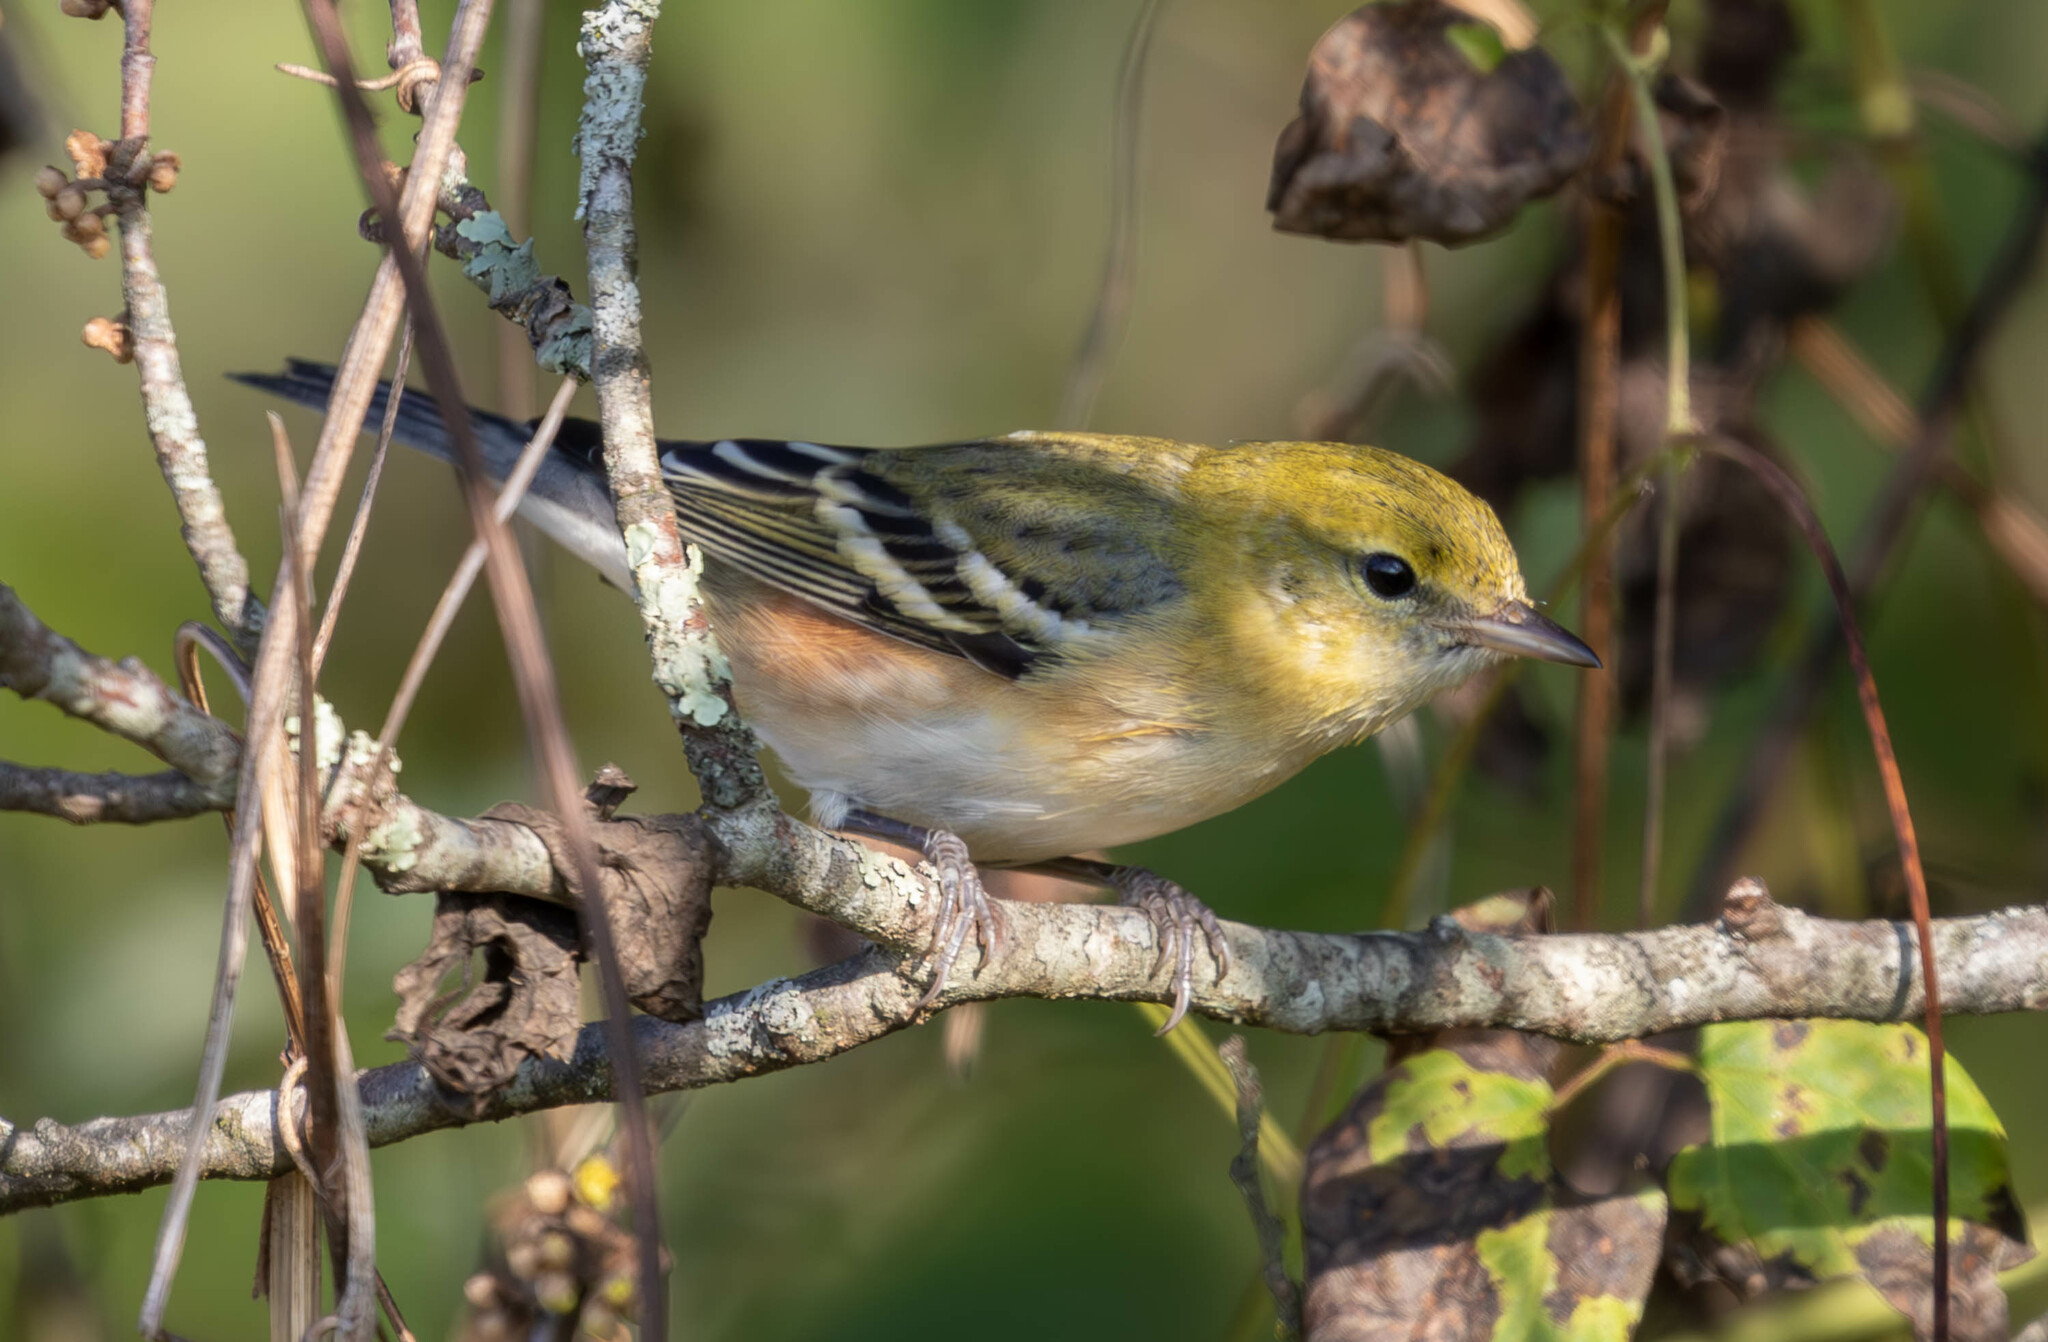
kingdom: Animalia
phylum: Chordata
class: Aves
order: Passeriformes
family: Parulidae
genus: Setophaga
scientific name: Setophaga castanea
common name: Bay-breasted warbler
